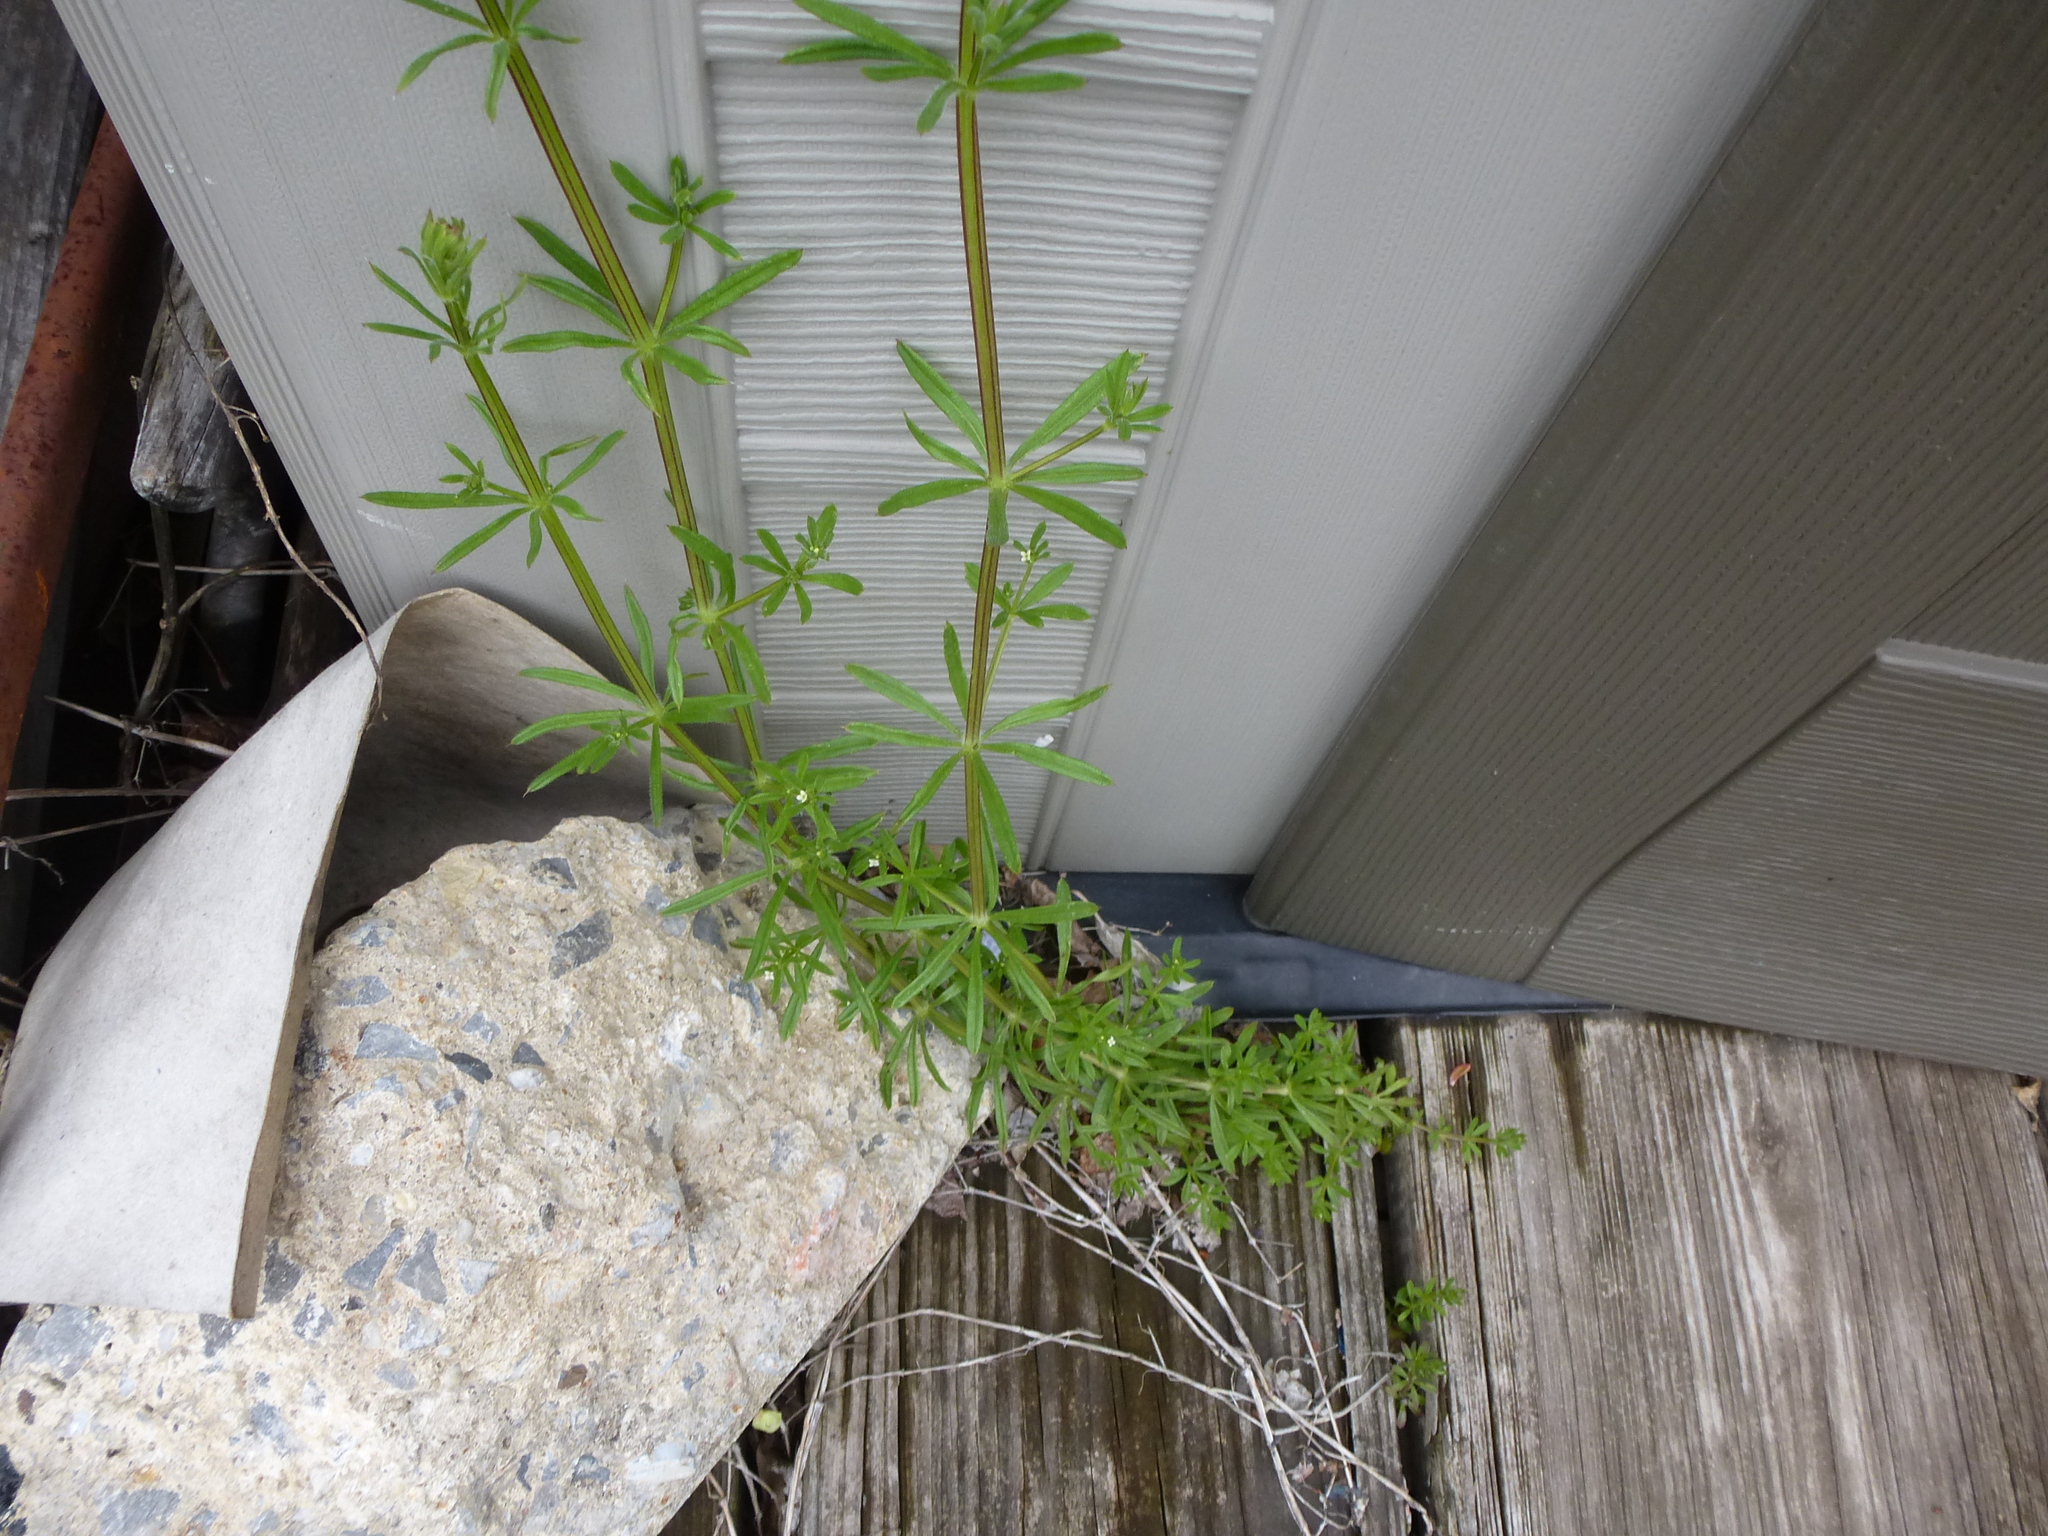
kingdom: Plantae
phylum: Tracheophyta
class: Magnoliopsida
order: Gentianales
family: Rubiaceae
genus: Galium
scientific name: Galium aparine
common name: Cleavers
